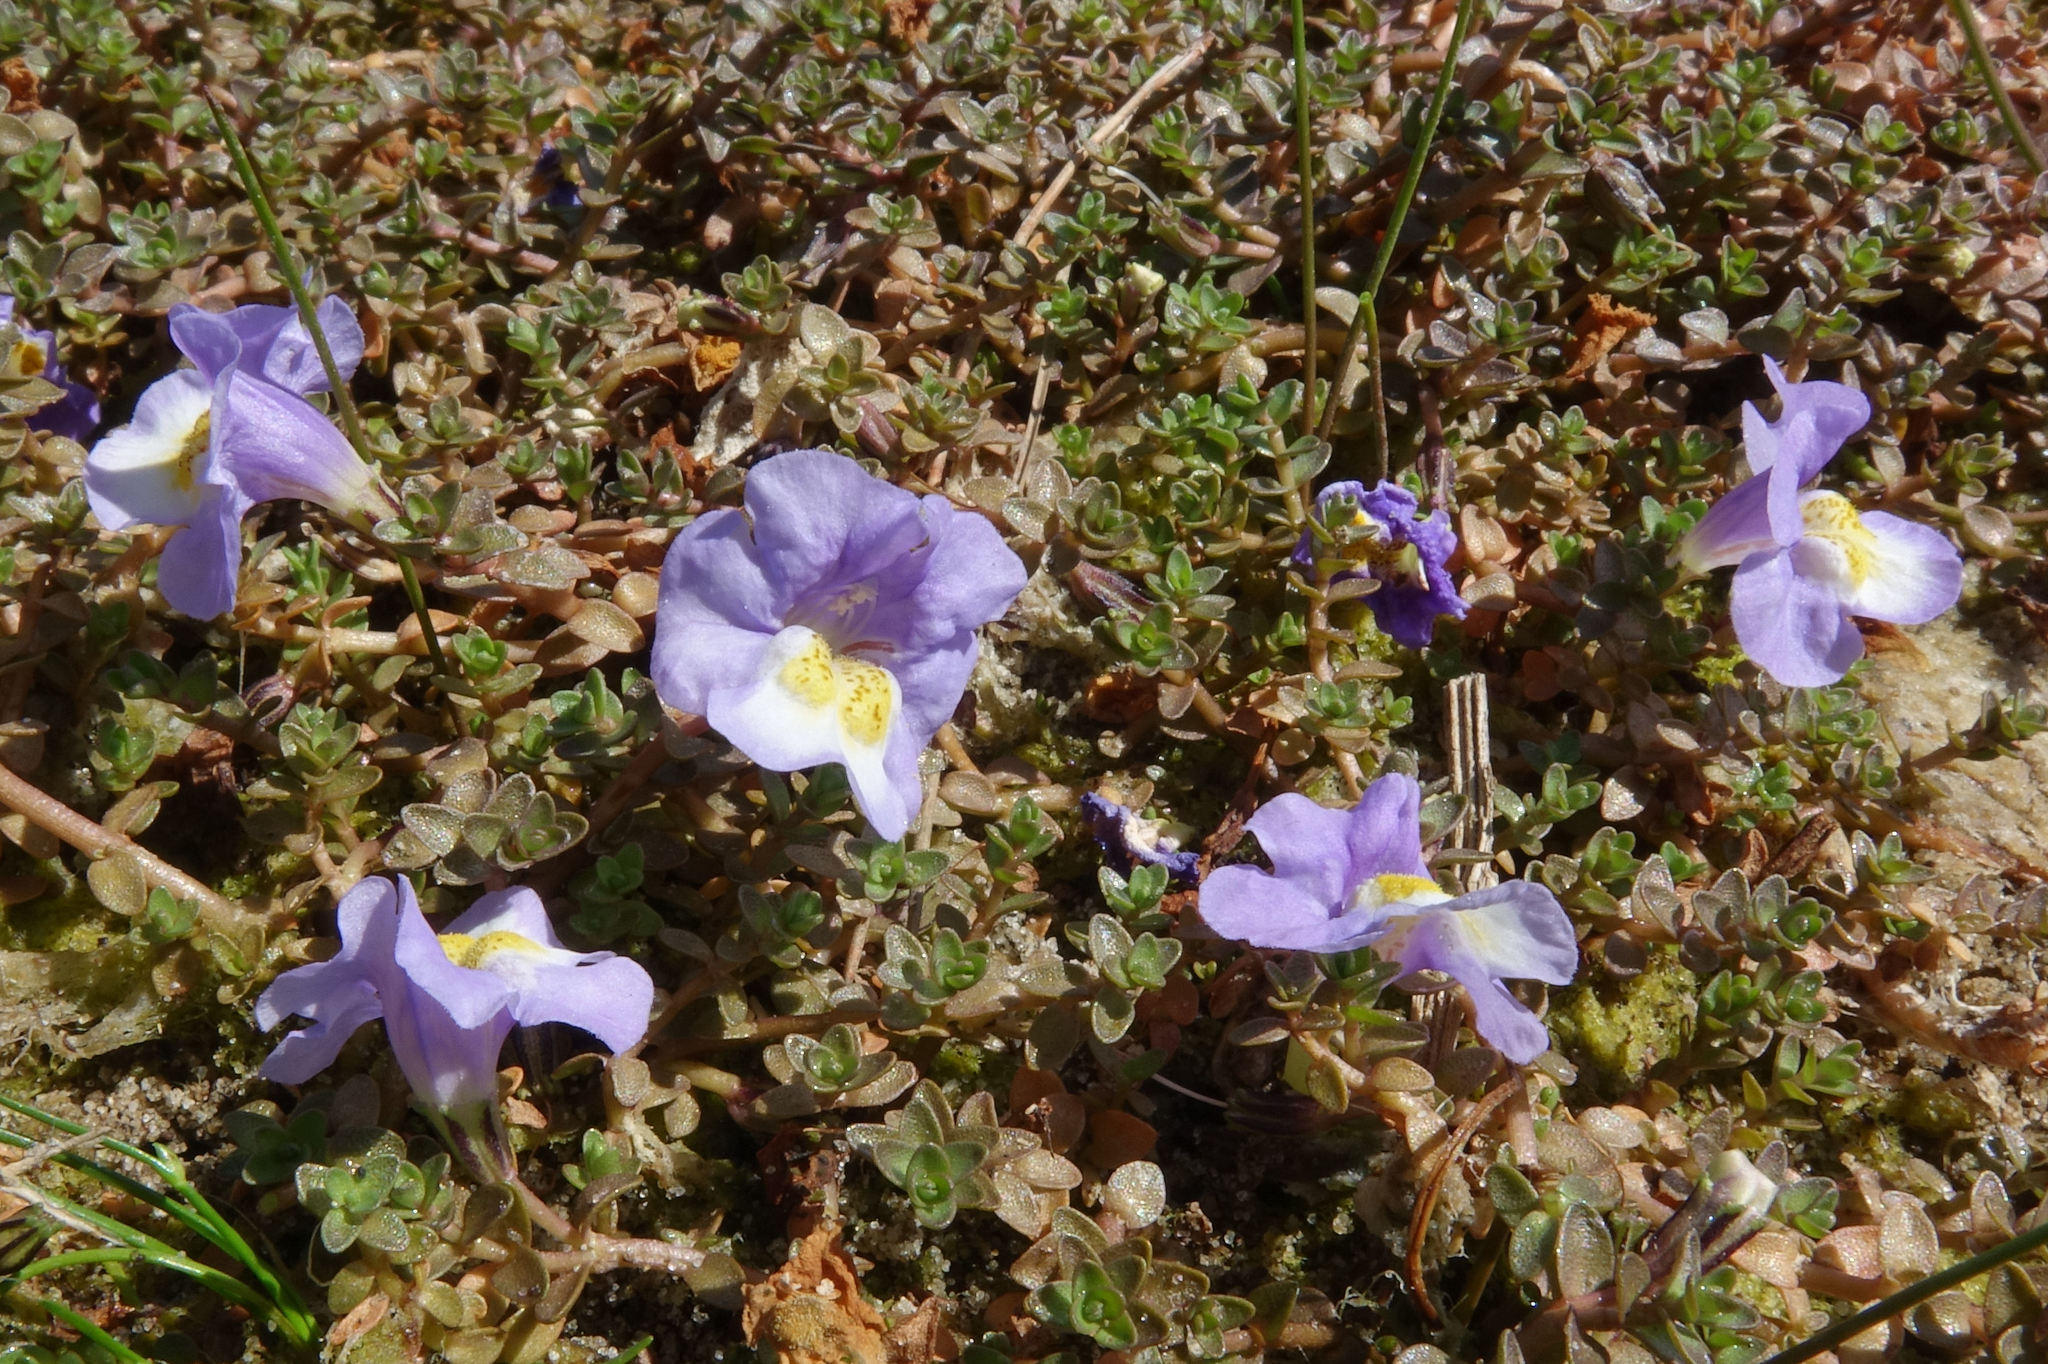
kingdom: Plantae
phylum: Tracheophyta
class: Magnoliopsida
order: Lamiales
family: Phrymaceae
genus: Thyridia
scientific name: Thyridia repens
